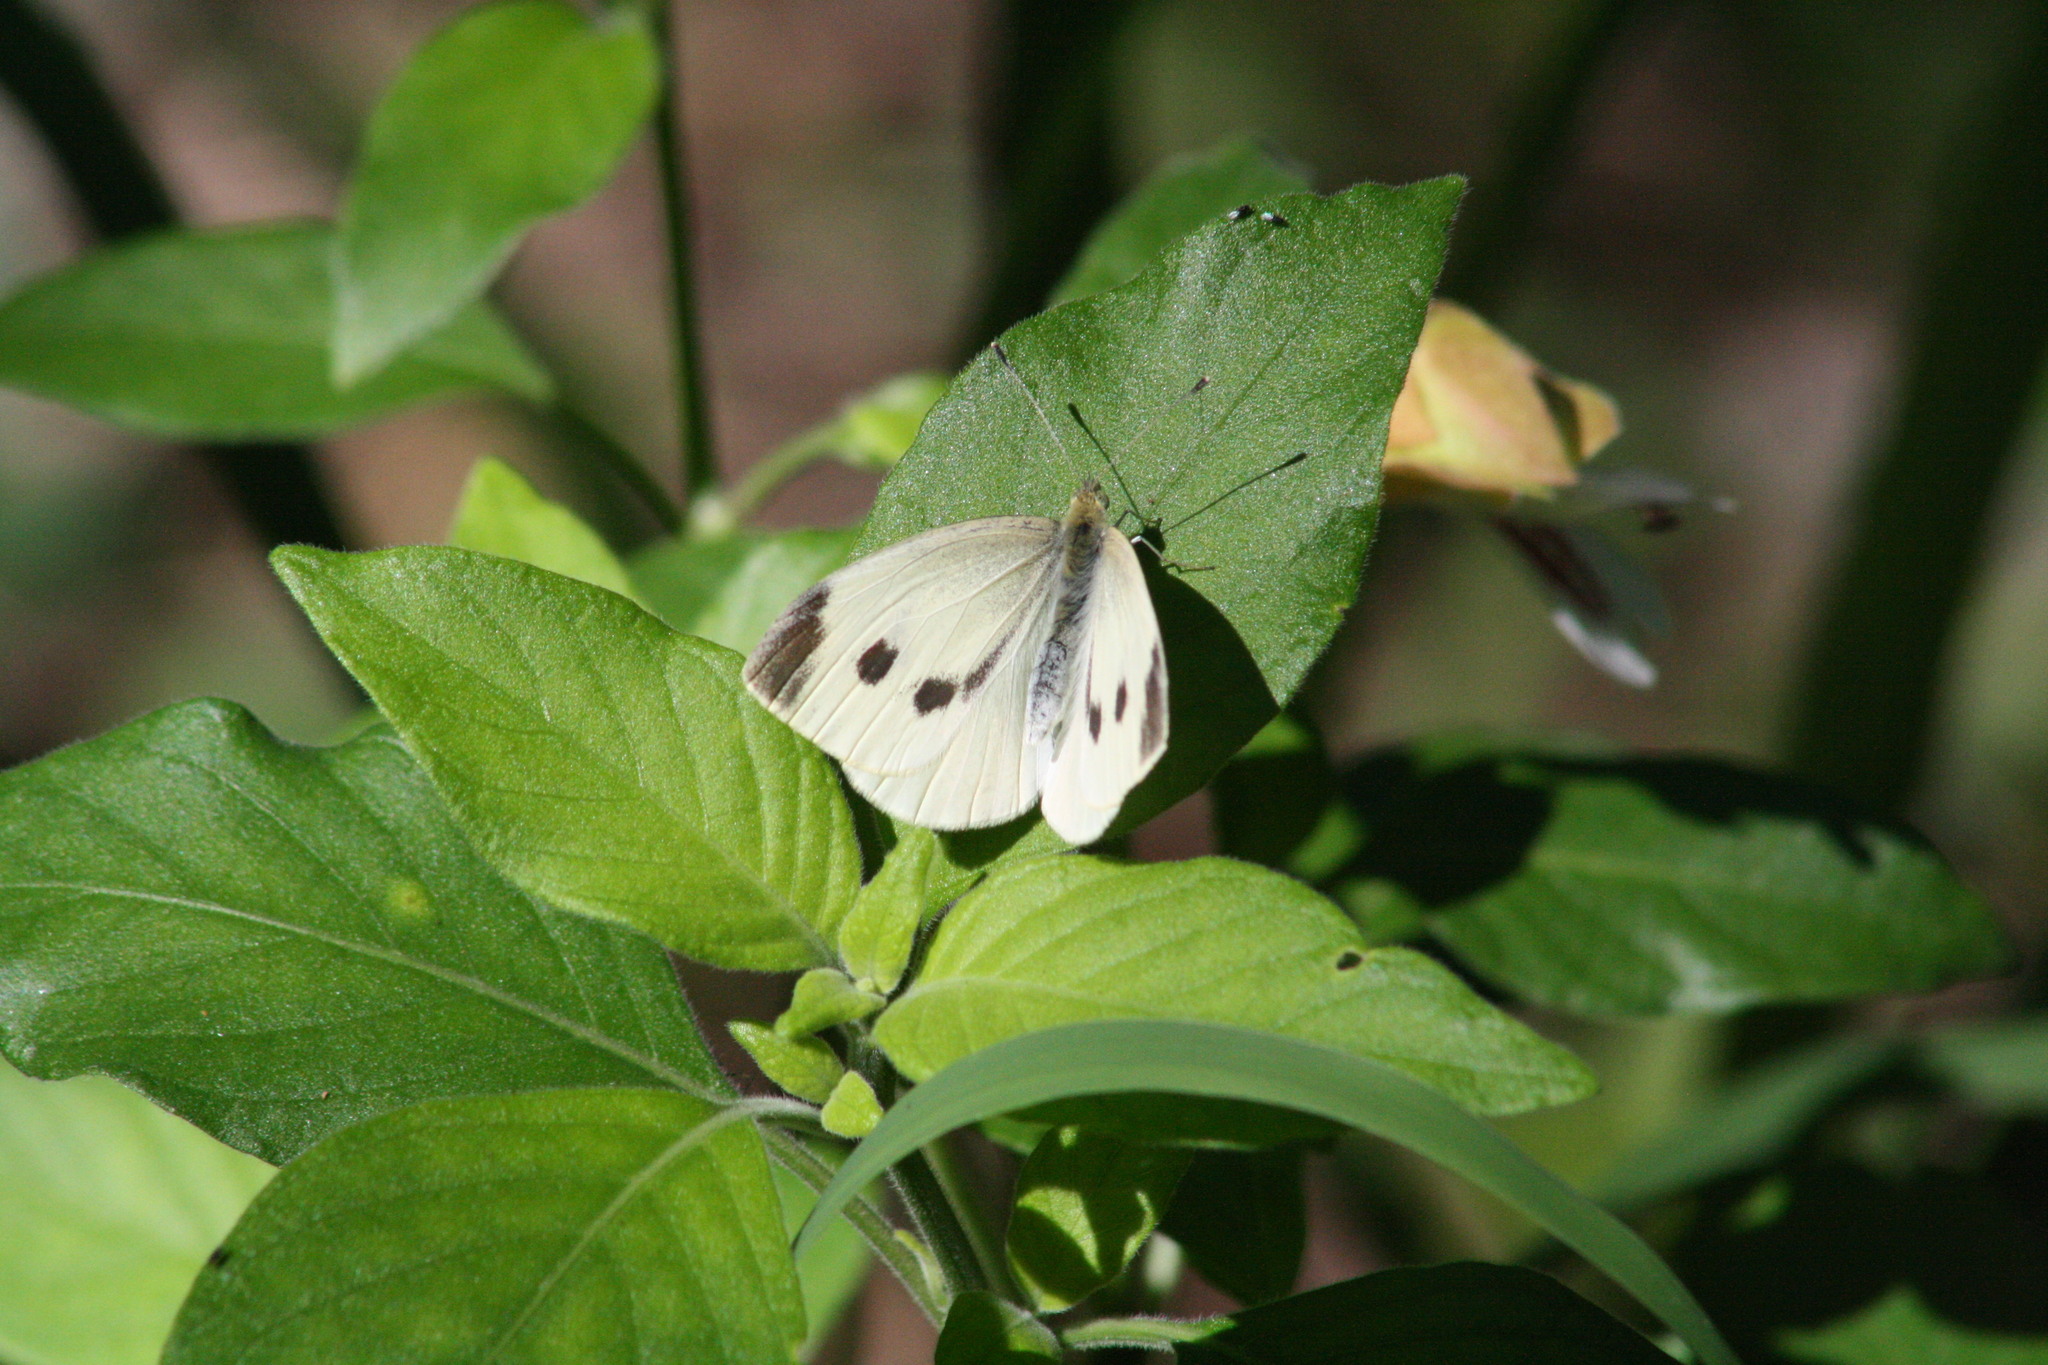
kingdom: Animalia
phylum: Arthropoda
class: Insecta
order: Lepidoptera
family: Pieridae
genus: Pieris
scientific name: Pieris rapae
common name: Small white
